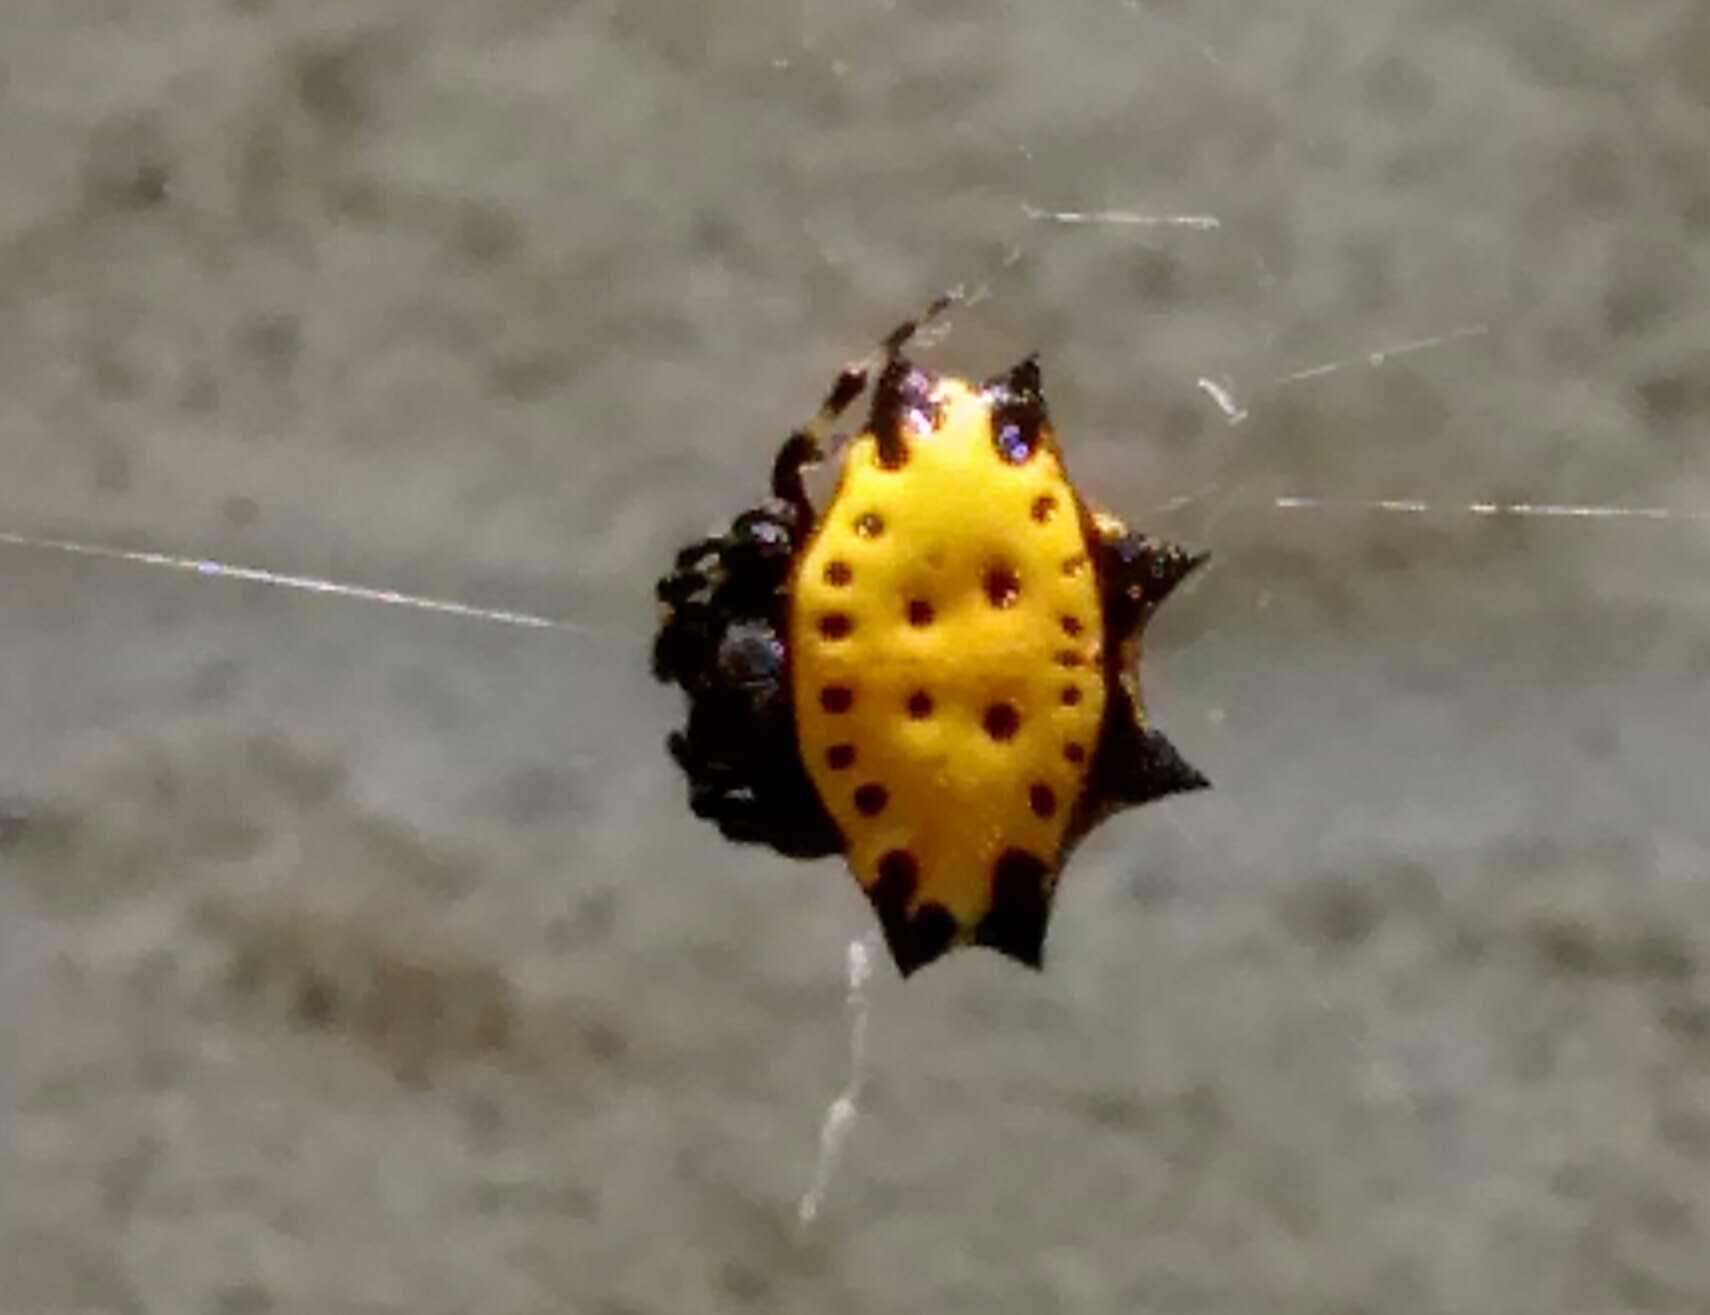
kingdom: Animalia
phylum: Arthropoda
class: Arachnida
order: Araneae
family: Araneidae
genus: Gasteracantha
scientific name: Gasteracantha cancriformis
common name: Orb weavers
